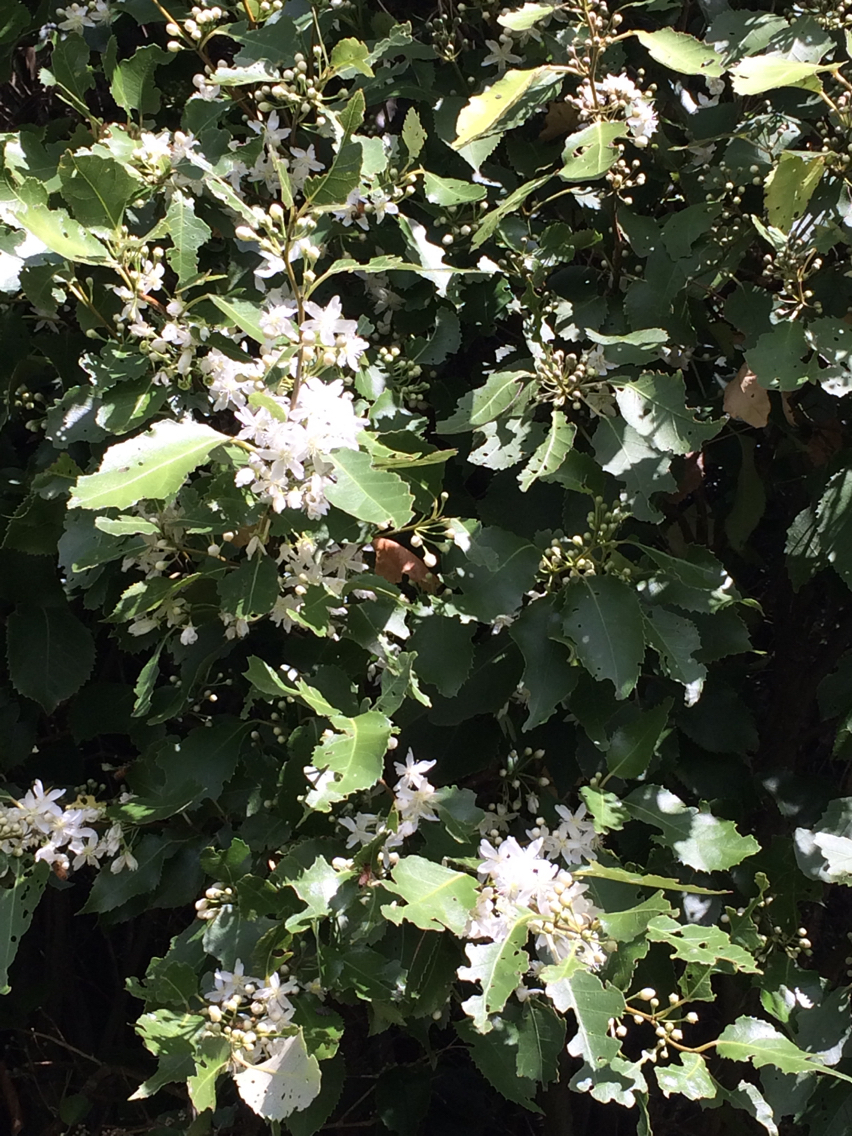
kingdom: Plantae
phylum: Tracheophyta
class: Magnoliopsida
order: Malvales
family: Malvaceae
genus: Hoheria
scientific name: Hoheria populnea
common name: Lacebark
